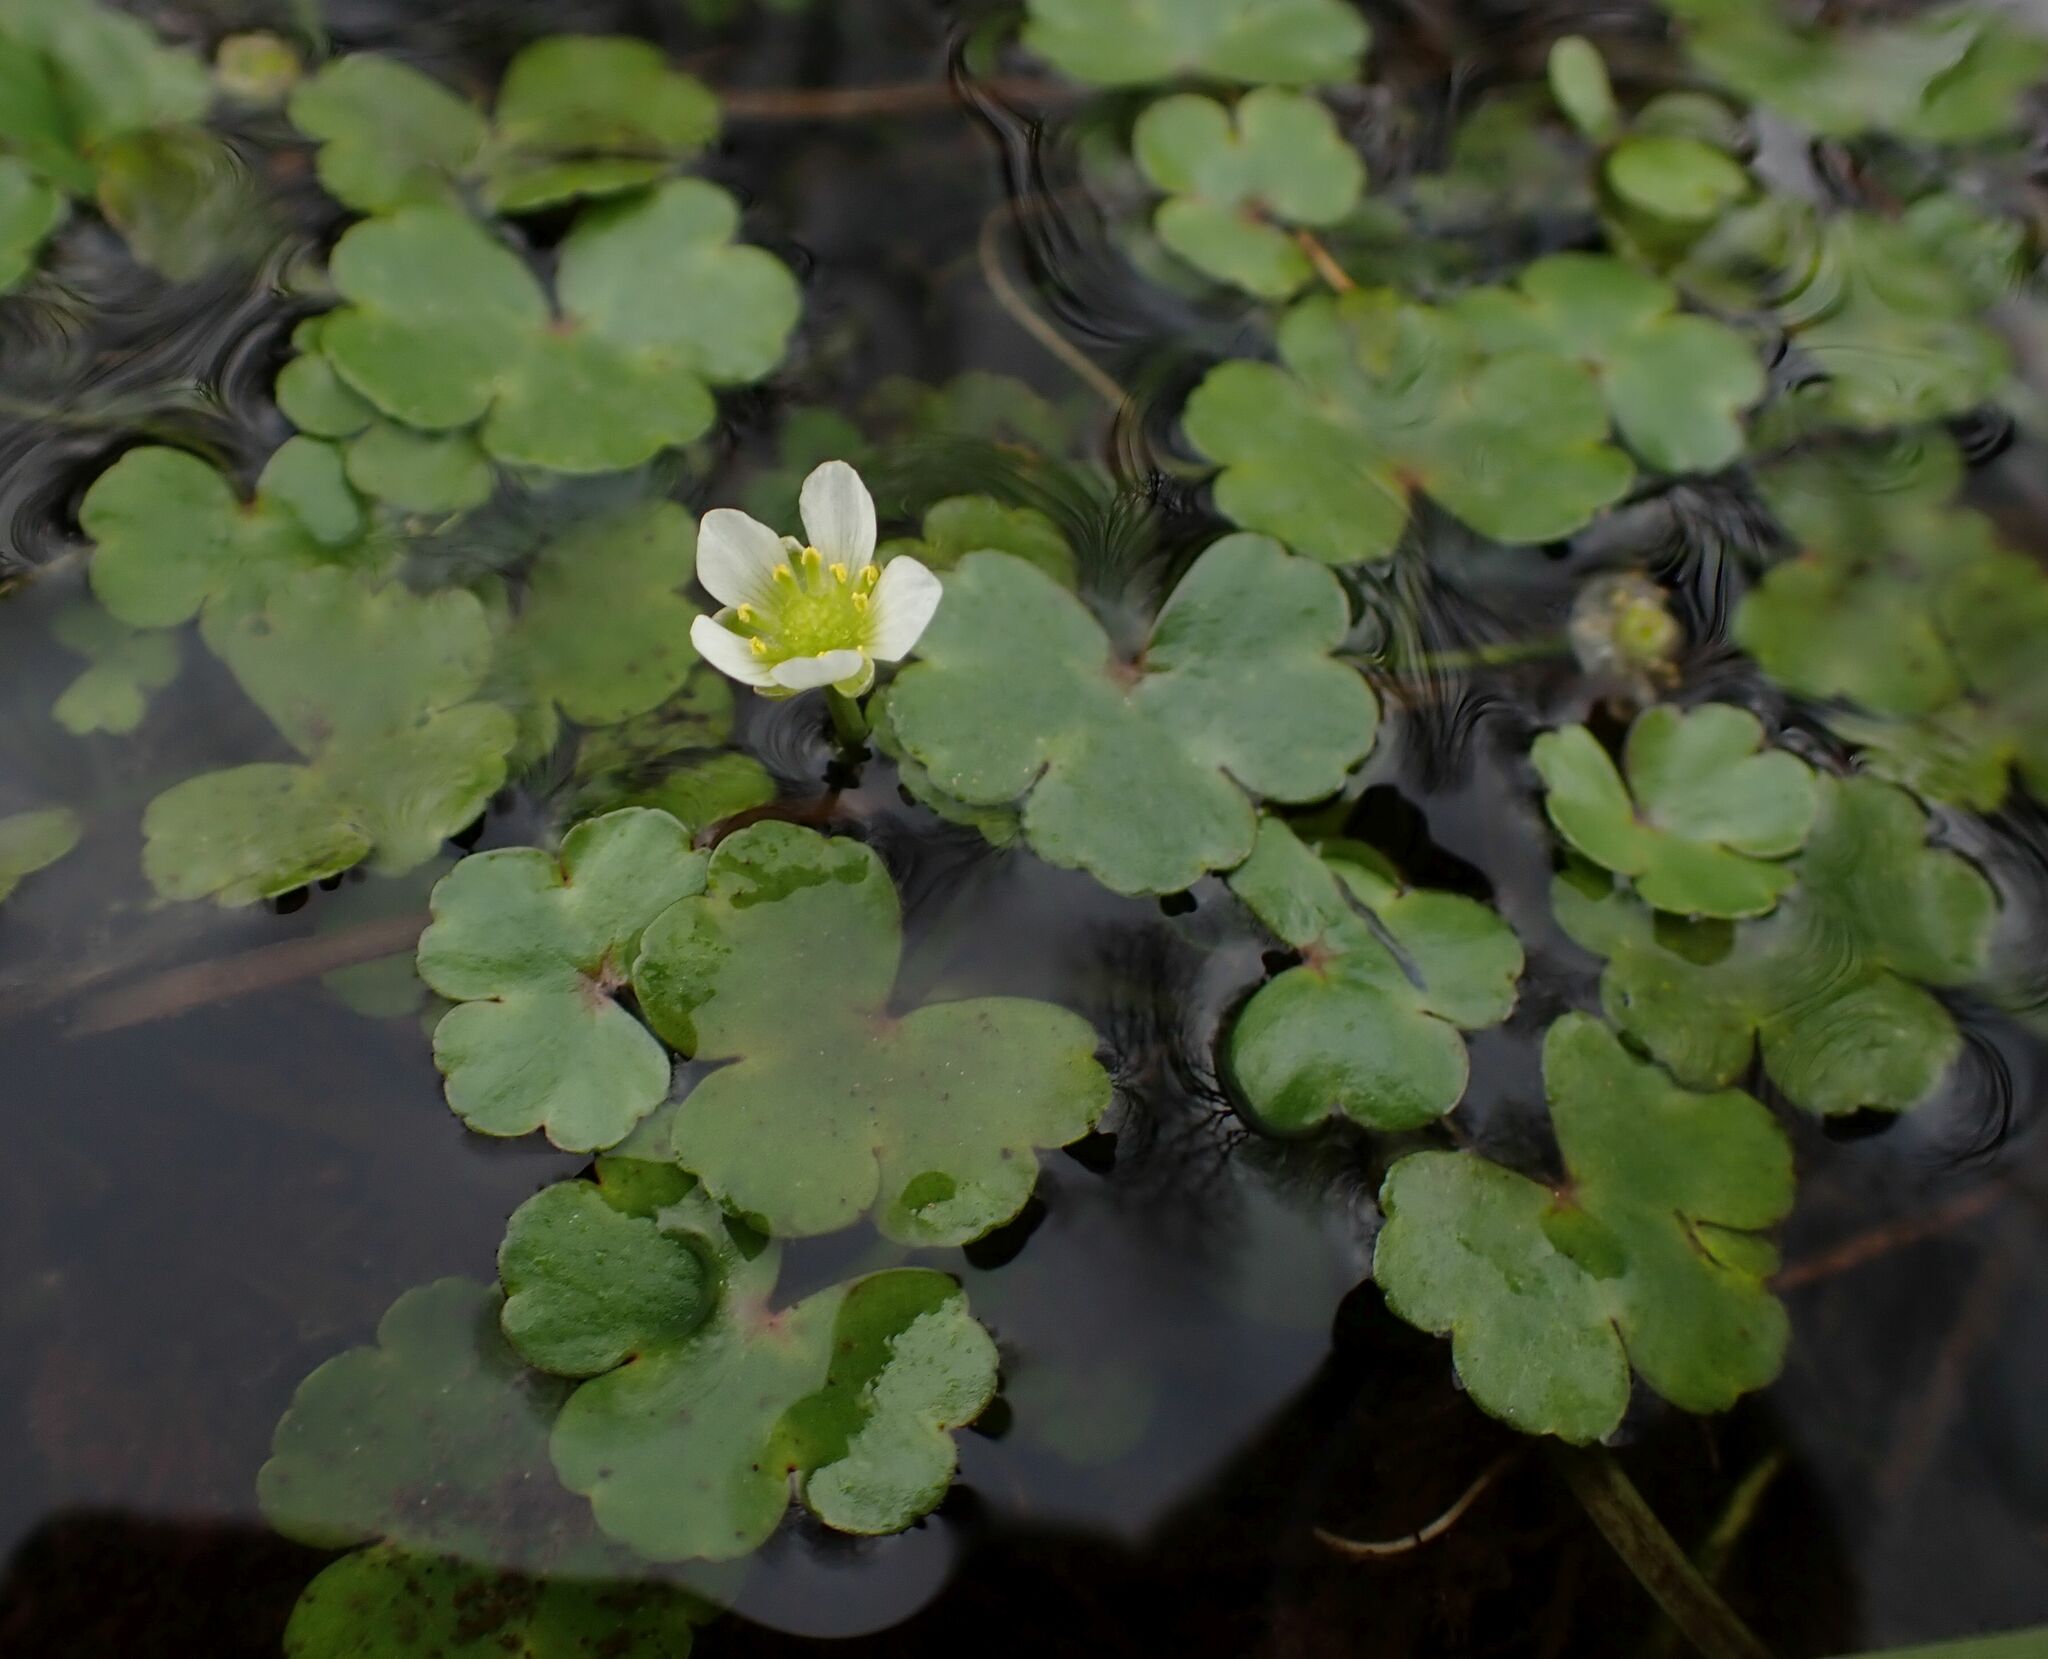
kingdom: Plantae
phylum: Tracheophyta
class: Magnoliopsida
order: Ranunculales
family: Ranunculaceae
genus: Ranunculus
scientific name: Ranunculus omiophyllus
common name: Round-leaved crowfoot
